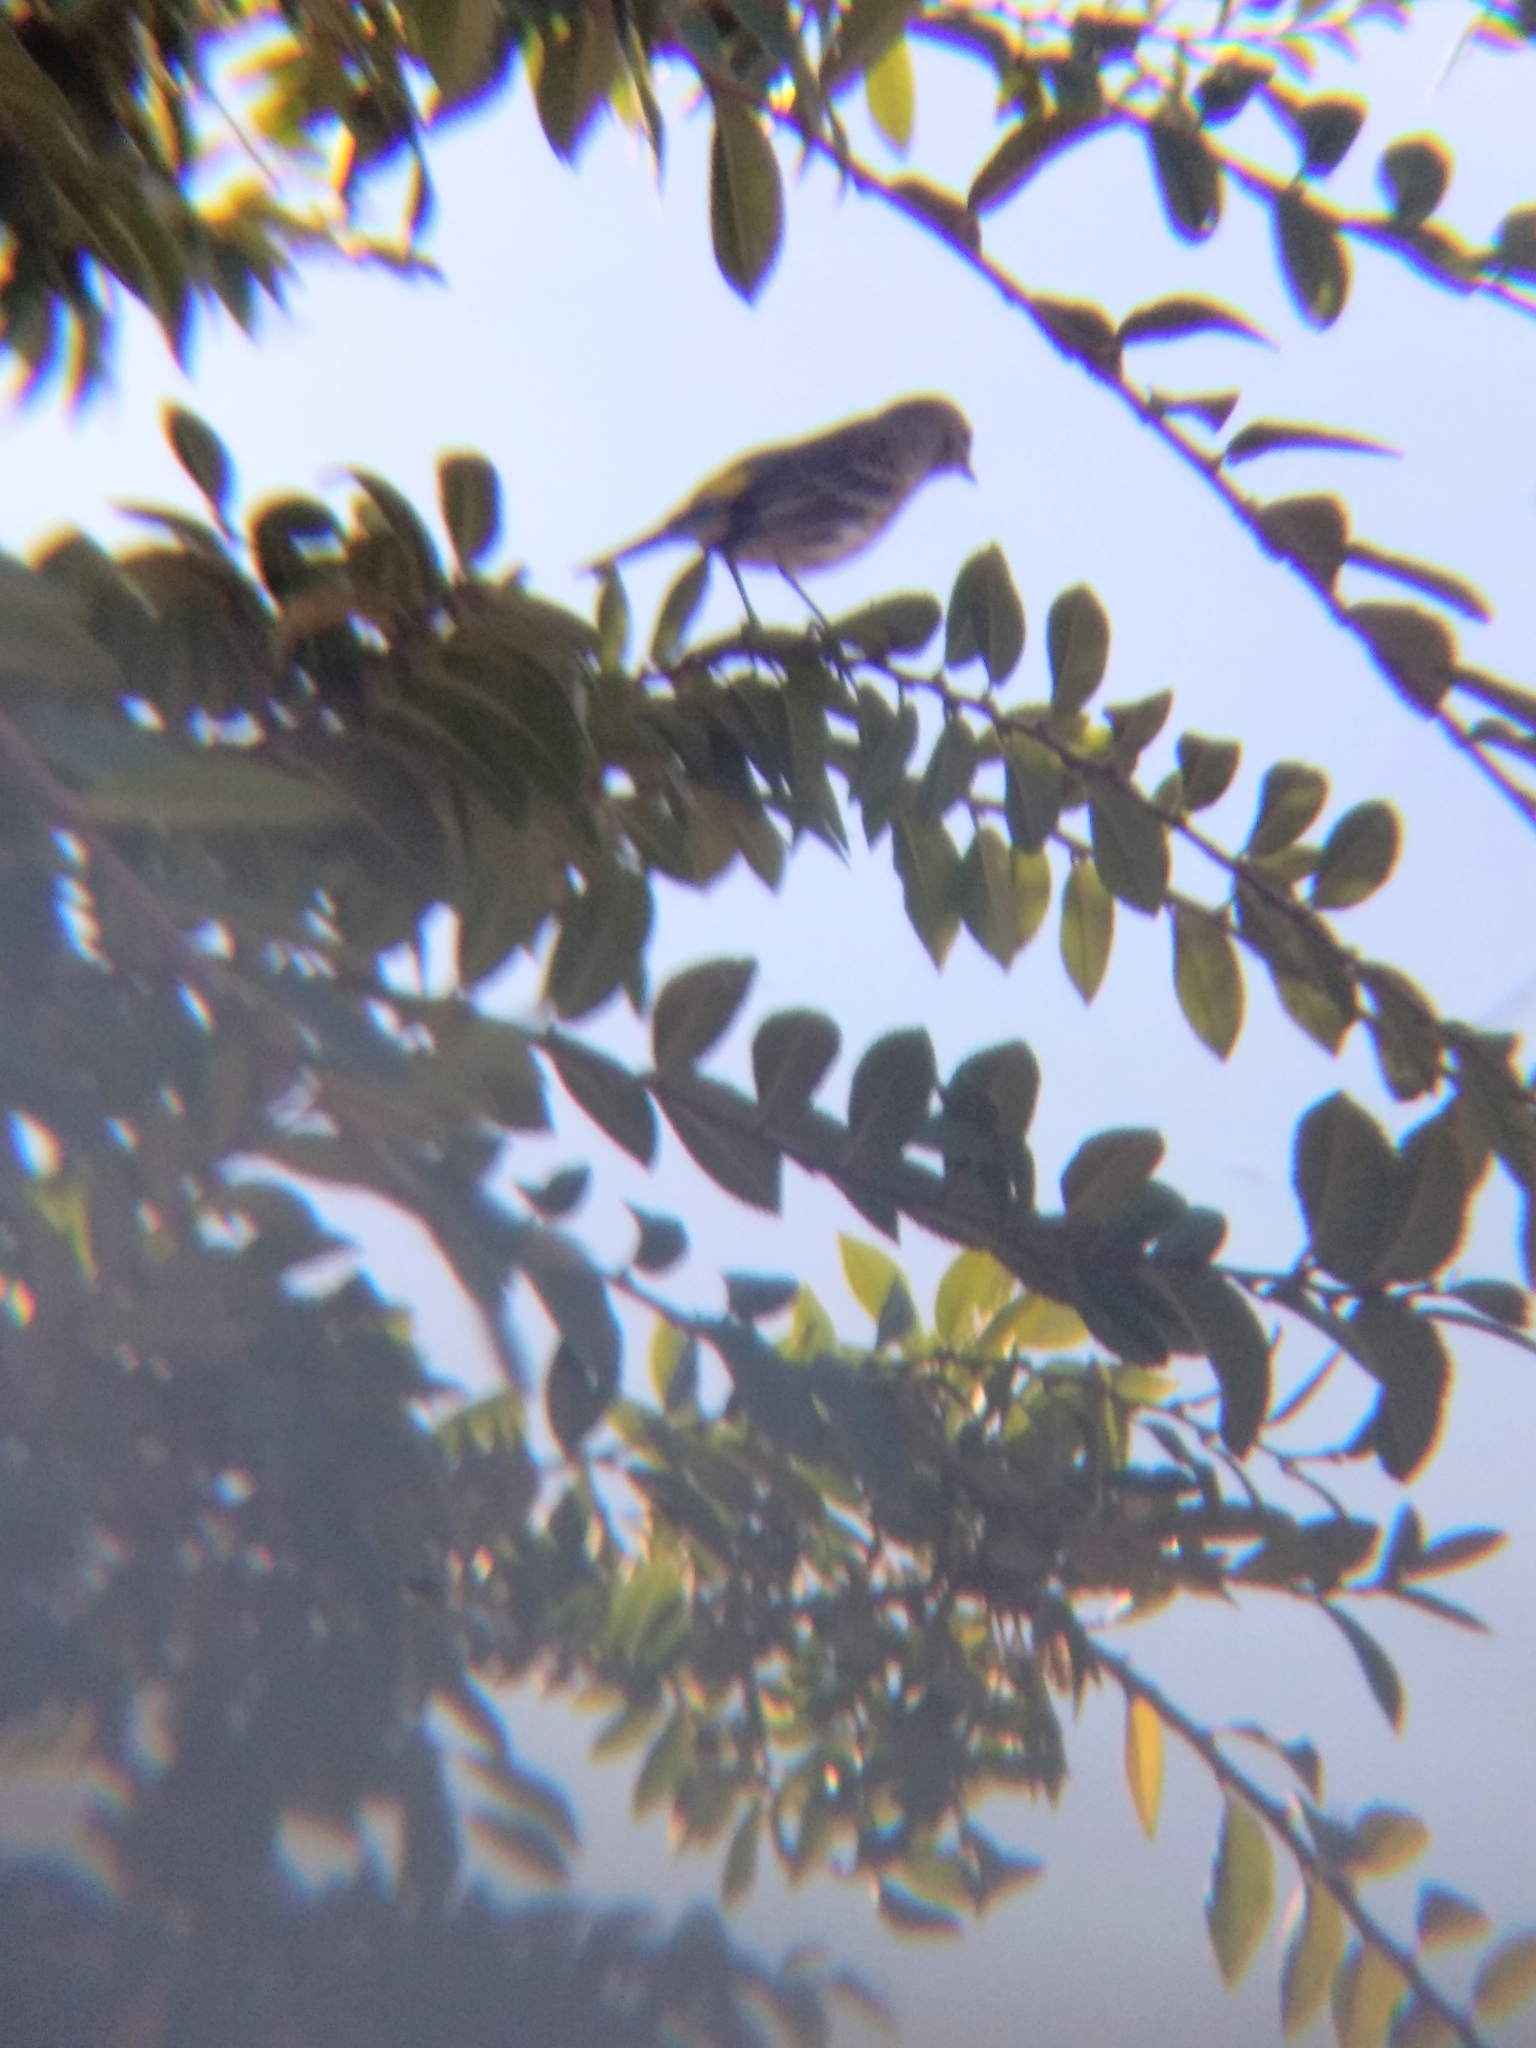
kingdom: Animalia
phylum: Chordata
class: Aves
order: Passeriformes
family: Parulidae
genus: Setophaga
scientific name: Setophaga coronata
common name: Myrtle warbler
